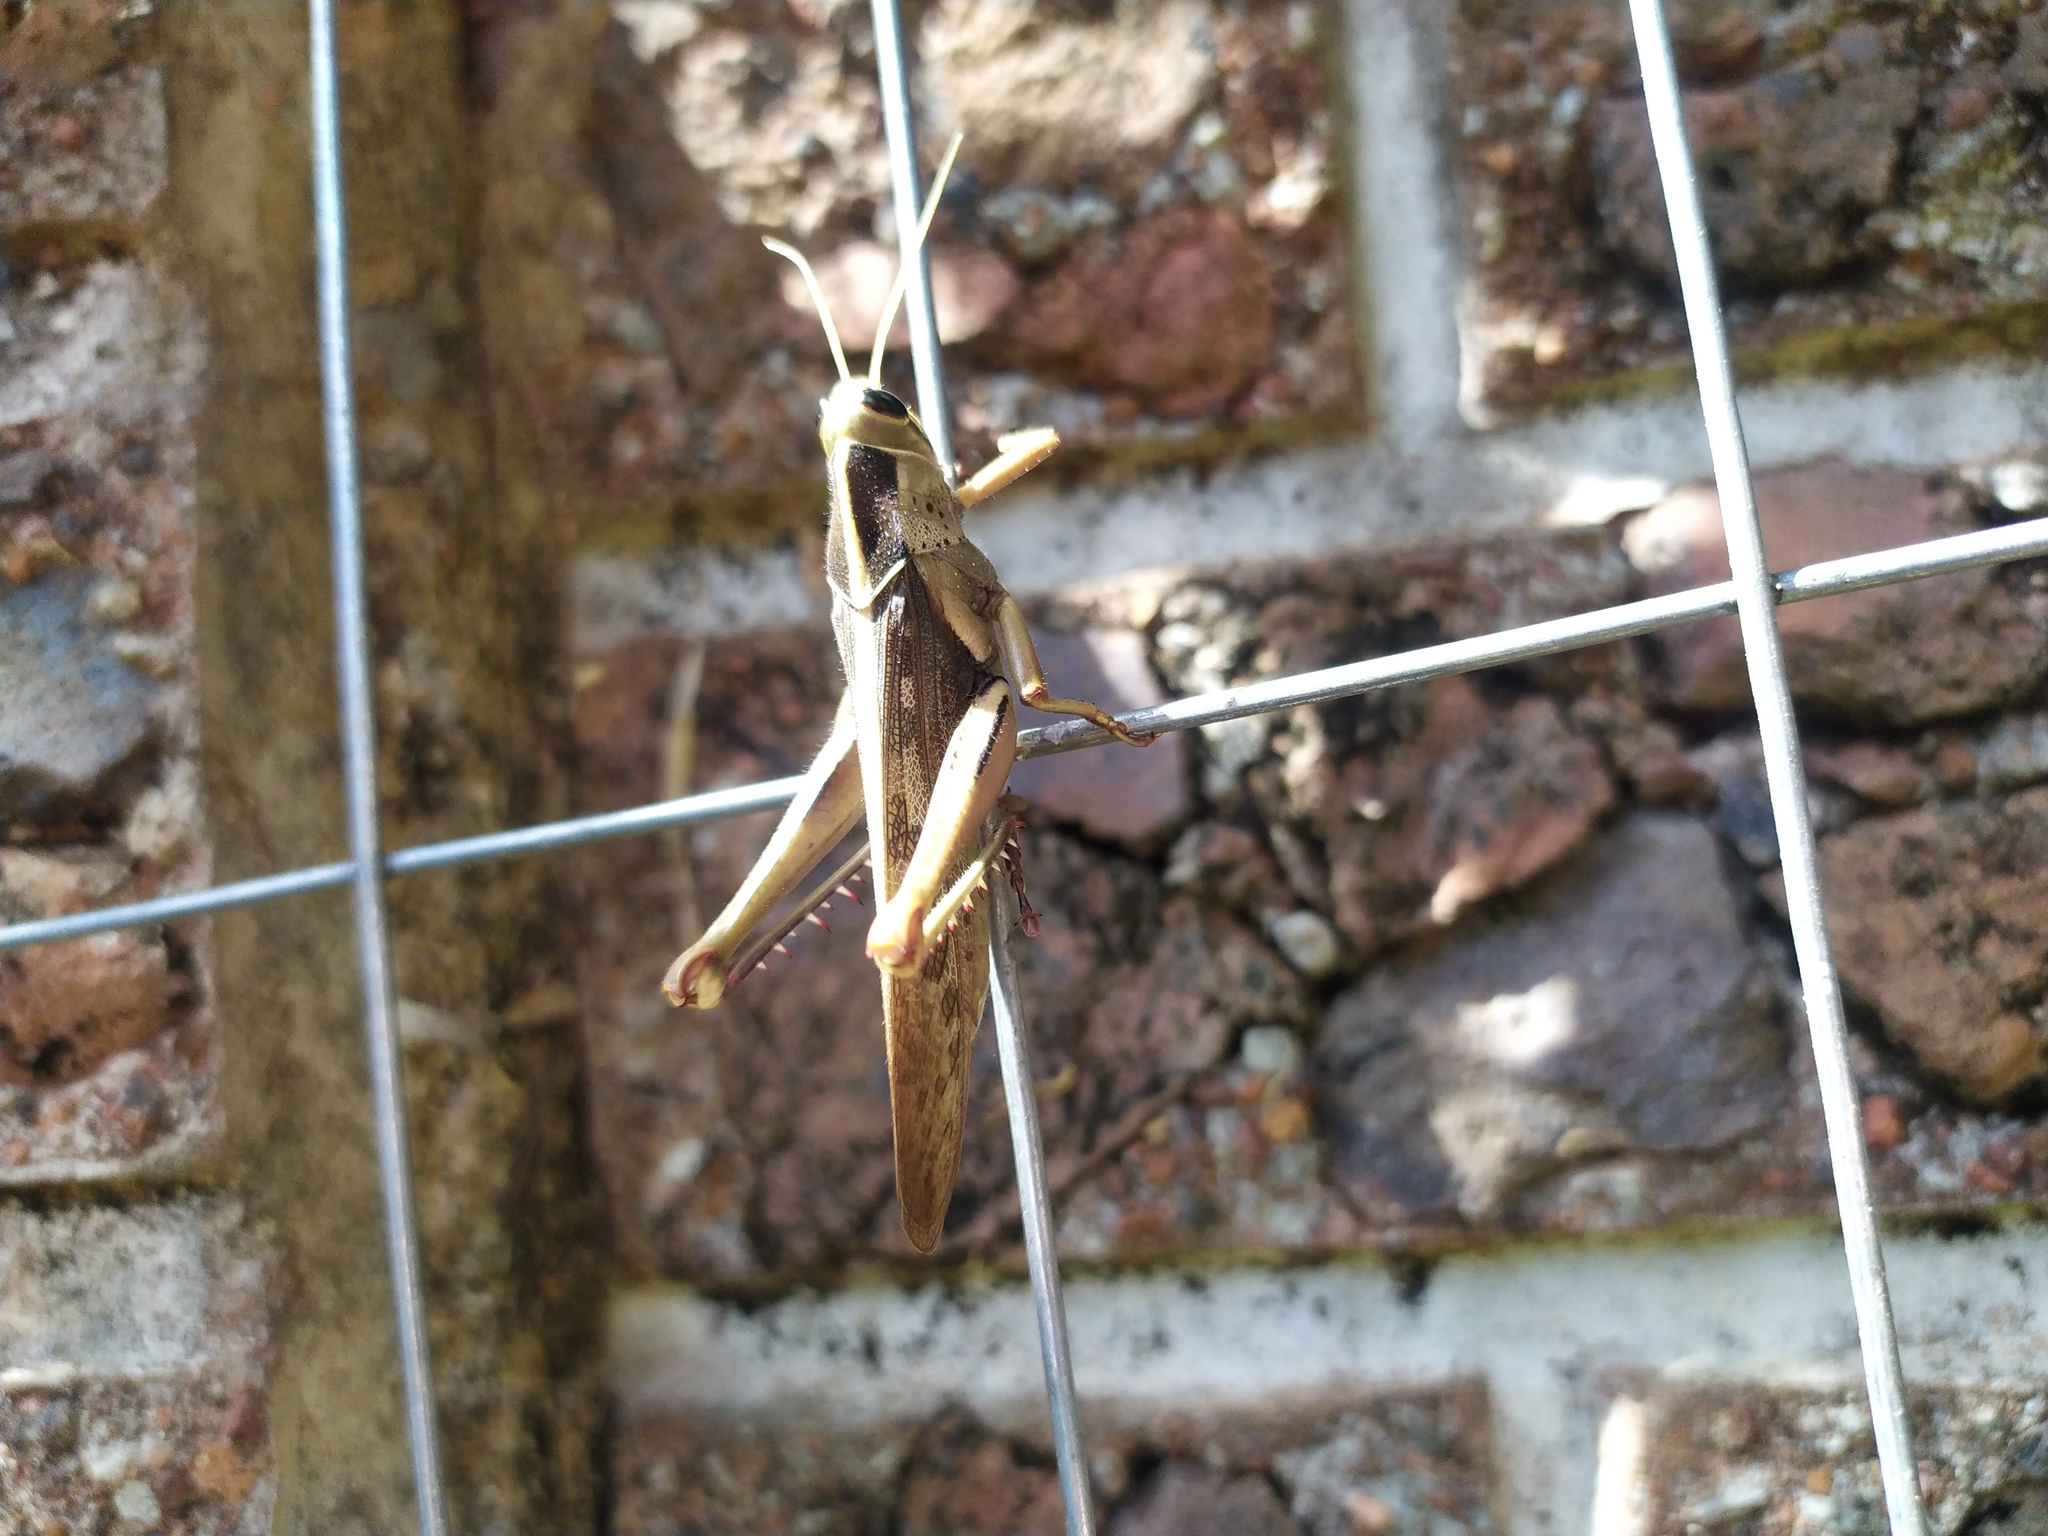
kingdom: Animalia
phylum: Arthropoda
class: Insecta
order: Orthoptera
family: Acrididae
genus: Acanthacris
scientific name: Acanthacris ruficornis
